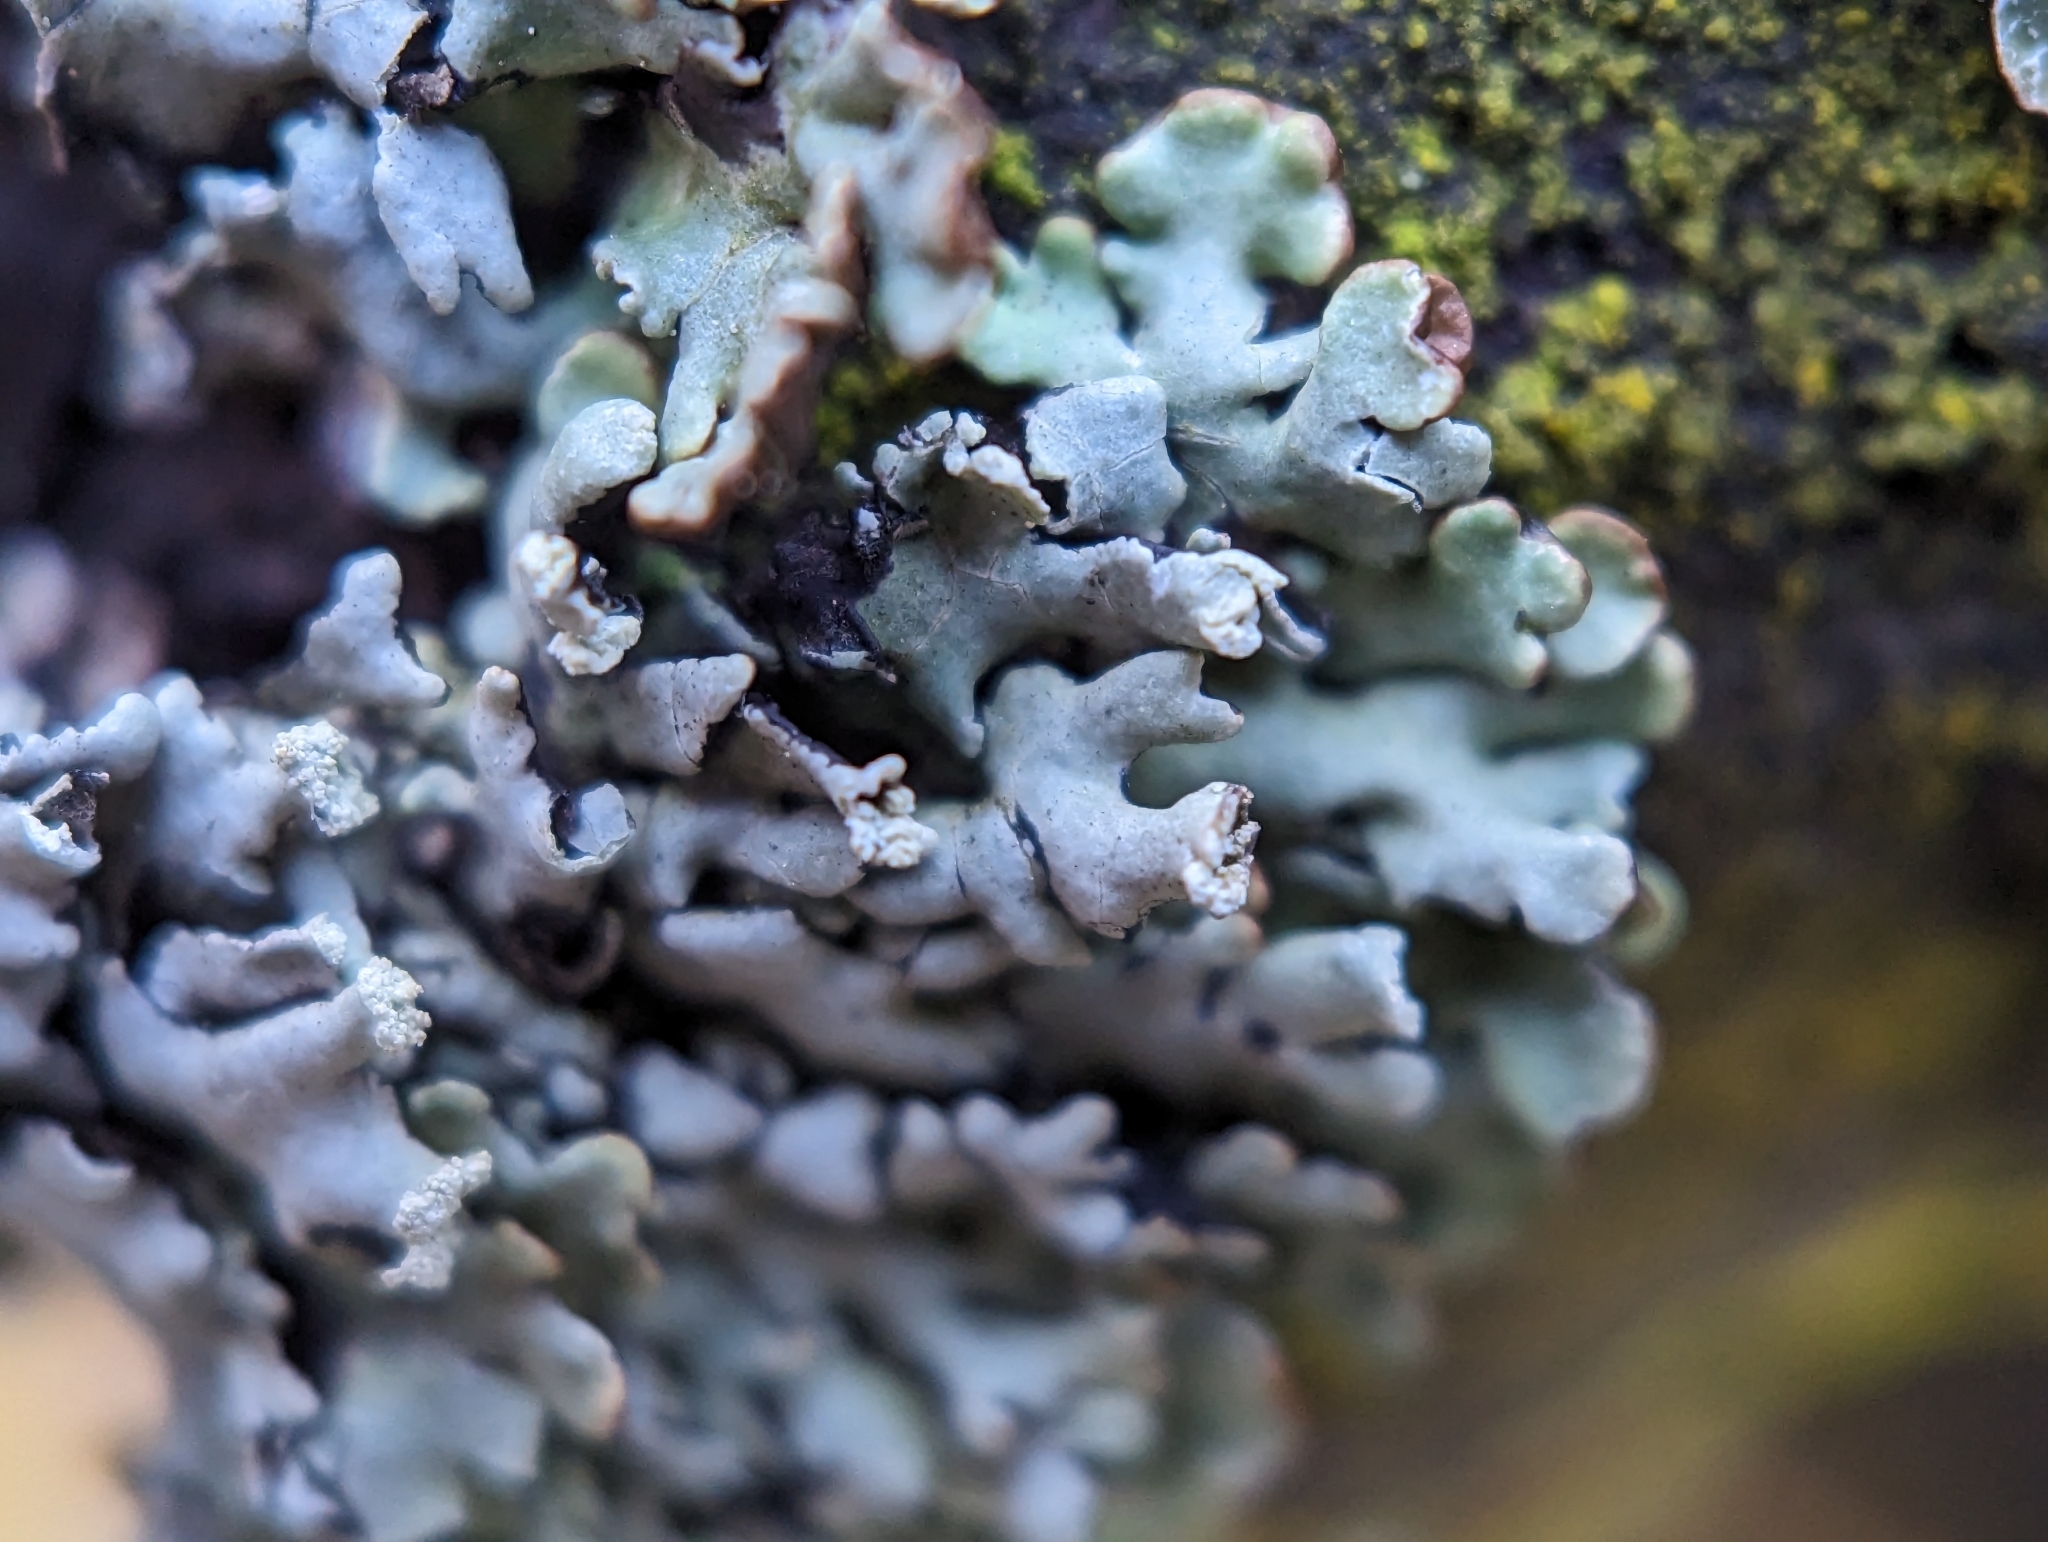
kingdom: Fungi
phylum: Ascomycota
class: Lecanoromycetes
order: Lecanorales
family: Parmeliaceae
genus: Hypogymnia
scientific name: Hypogymnia physodes
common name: Dark crottle
